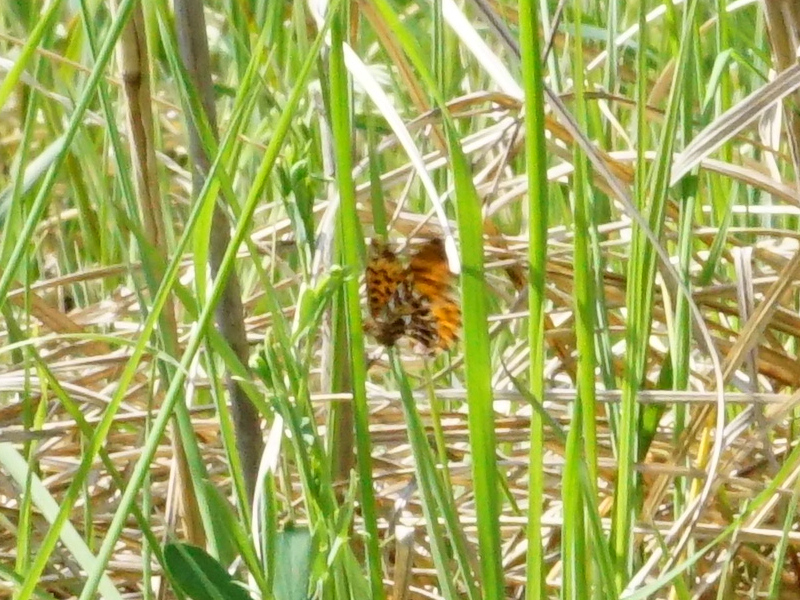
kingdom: Animalia
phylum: Arthropoda
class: Insecta
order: Lepidoptera
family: Nymphalidae
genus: Boloria
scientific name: Boloria dia
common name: Weaver's fritillary
